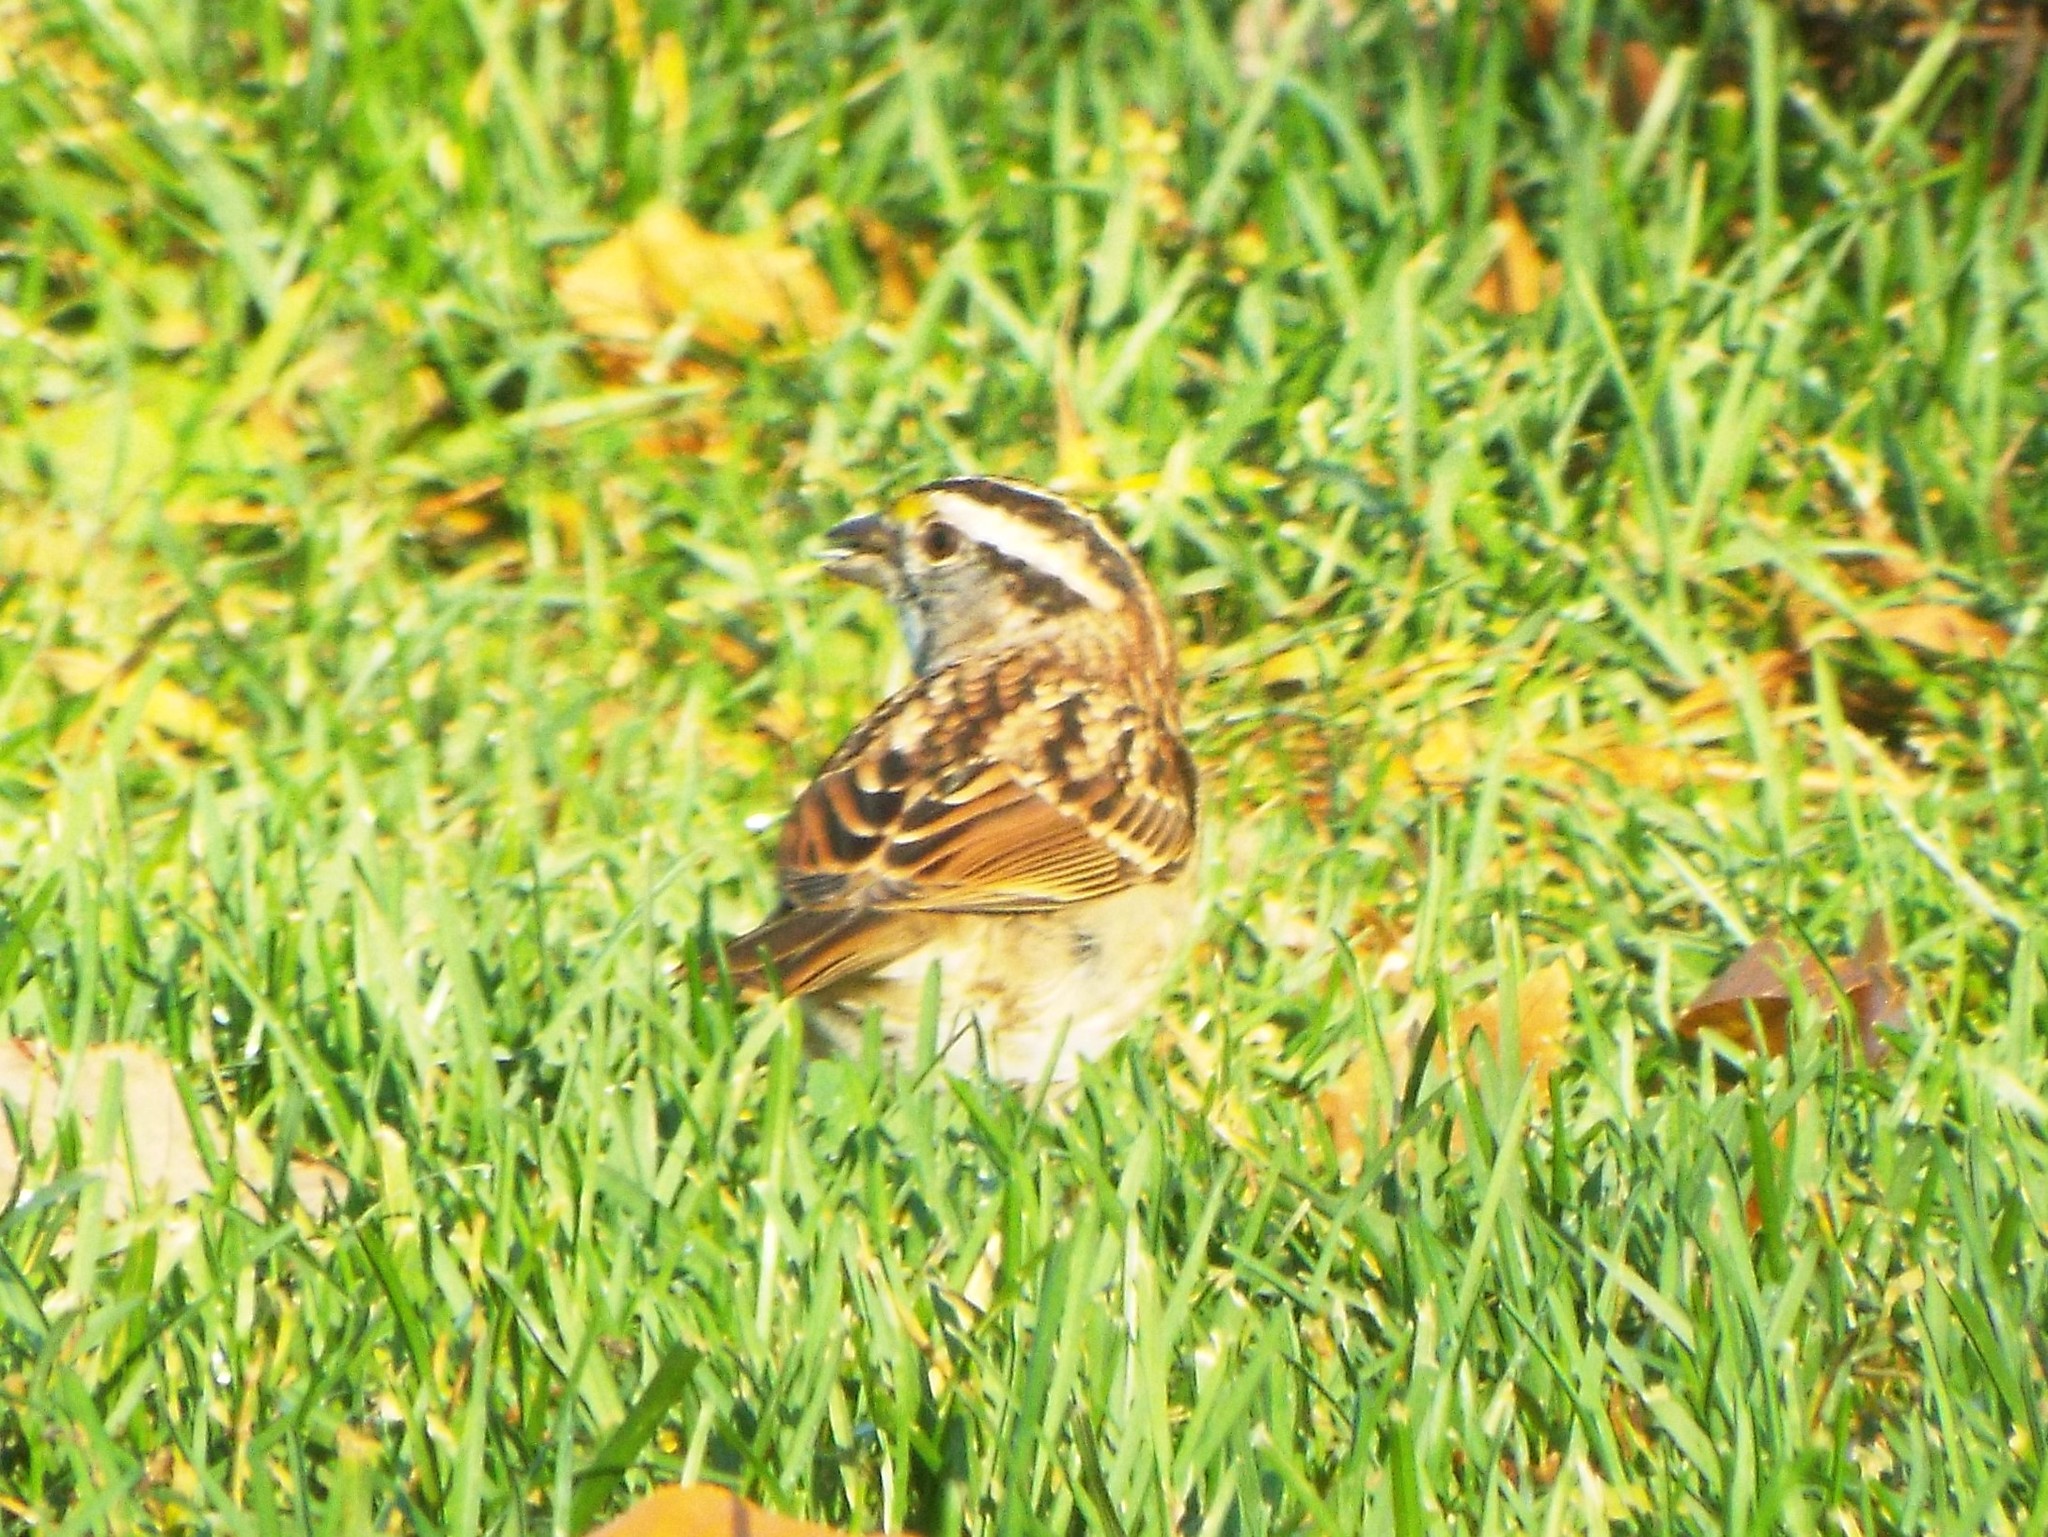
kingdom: Animalia
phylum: Chordata
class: Aves
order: Passeriformes
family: Passerellidae
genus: Zonotrichia
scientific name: Zonotrichia albicollis
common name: White-throated sparrow
